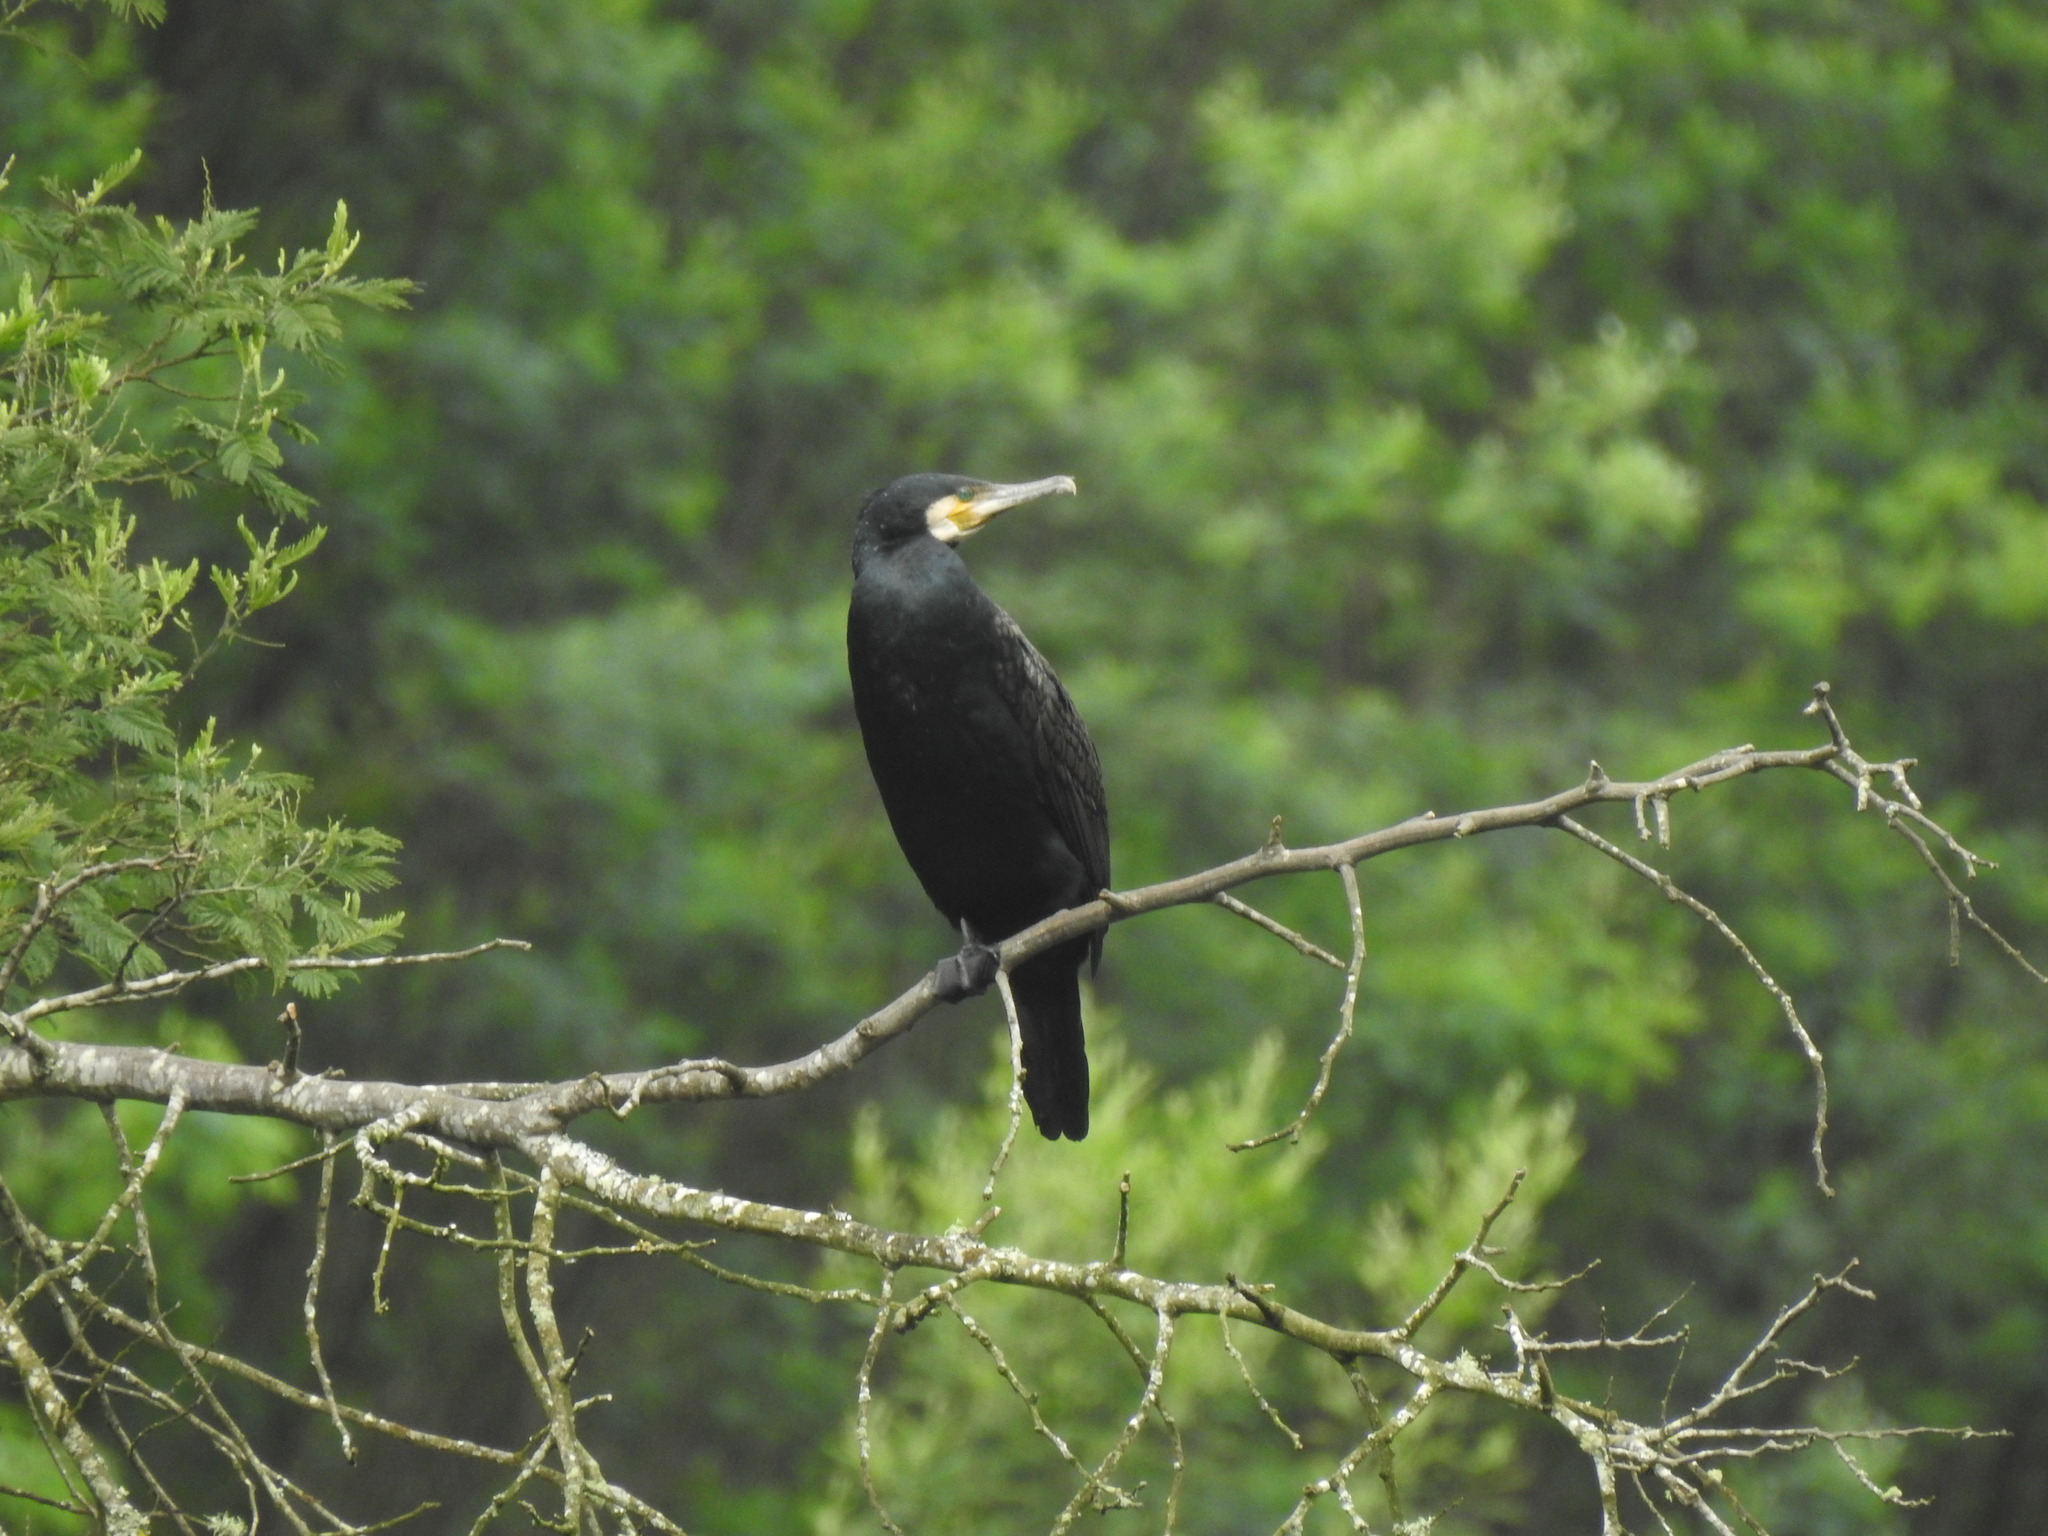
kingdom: Animalia
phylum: Chordata
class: Aves
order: Suliformes
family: Phalacrocoracidae
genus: Phalacrocorax
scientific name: Phalacrocorax carbo
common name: Great cormorant
